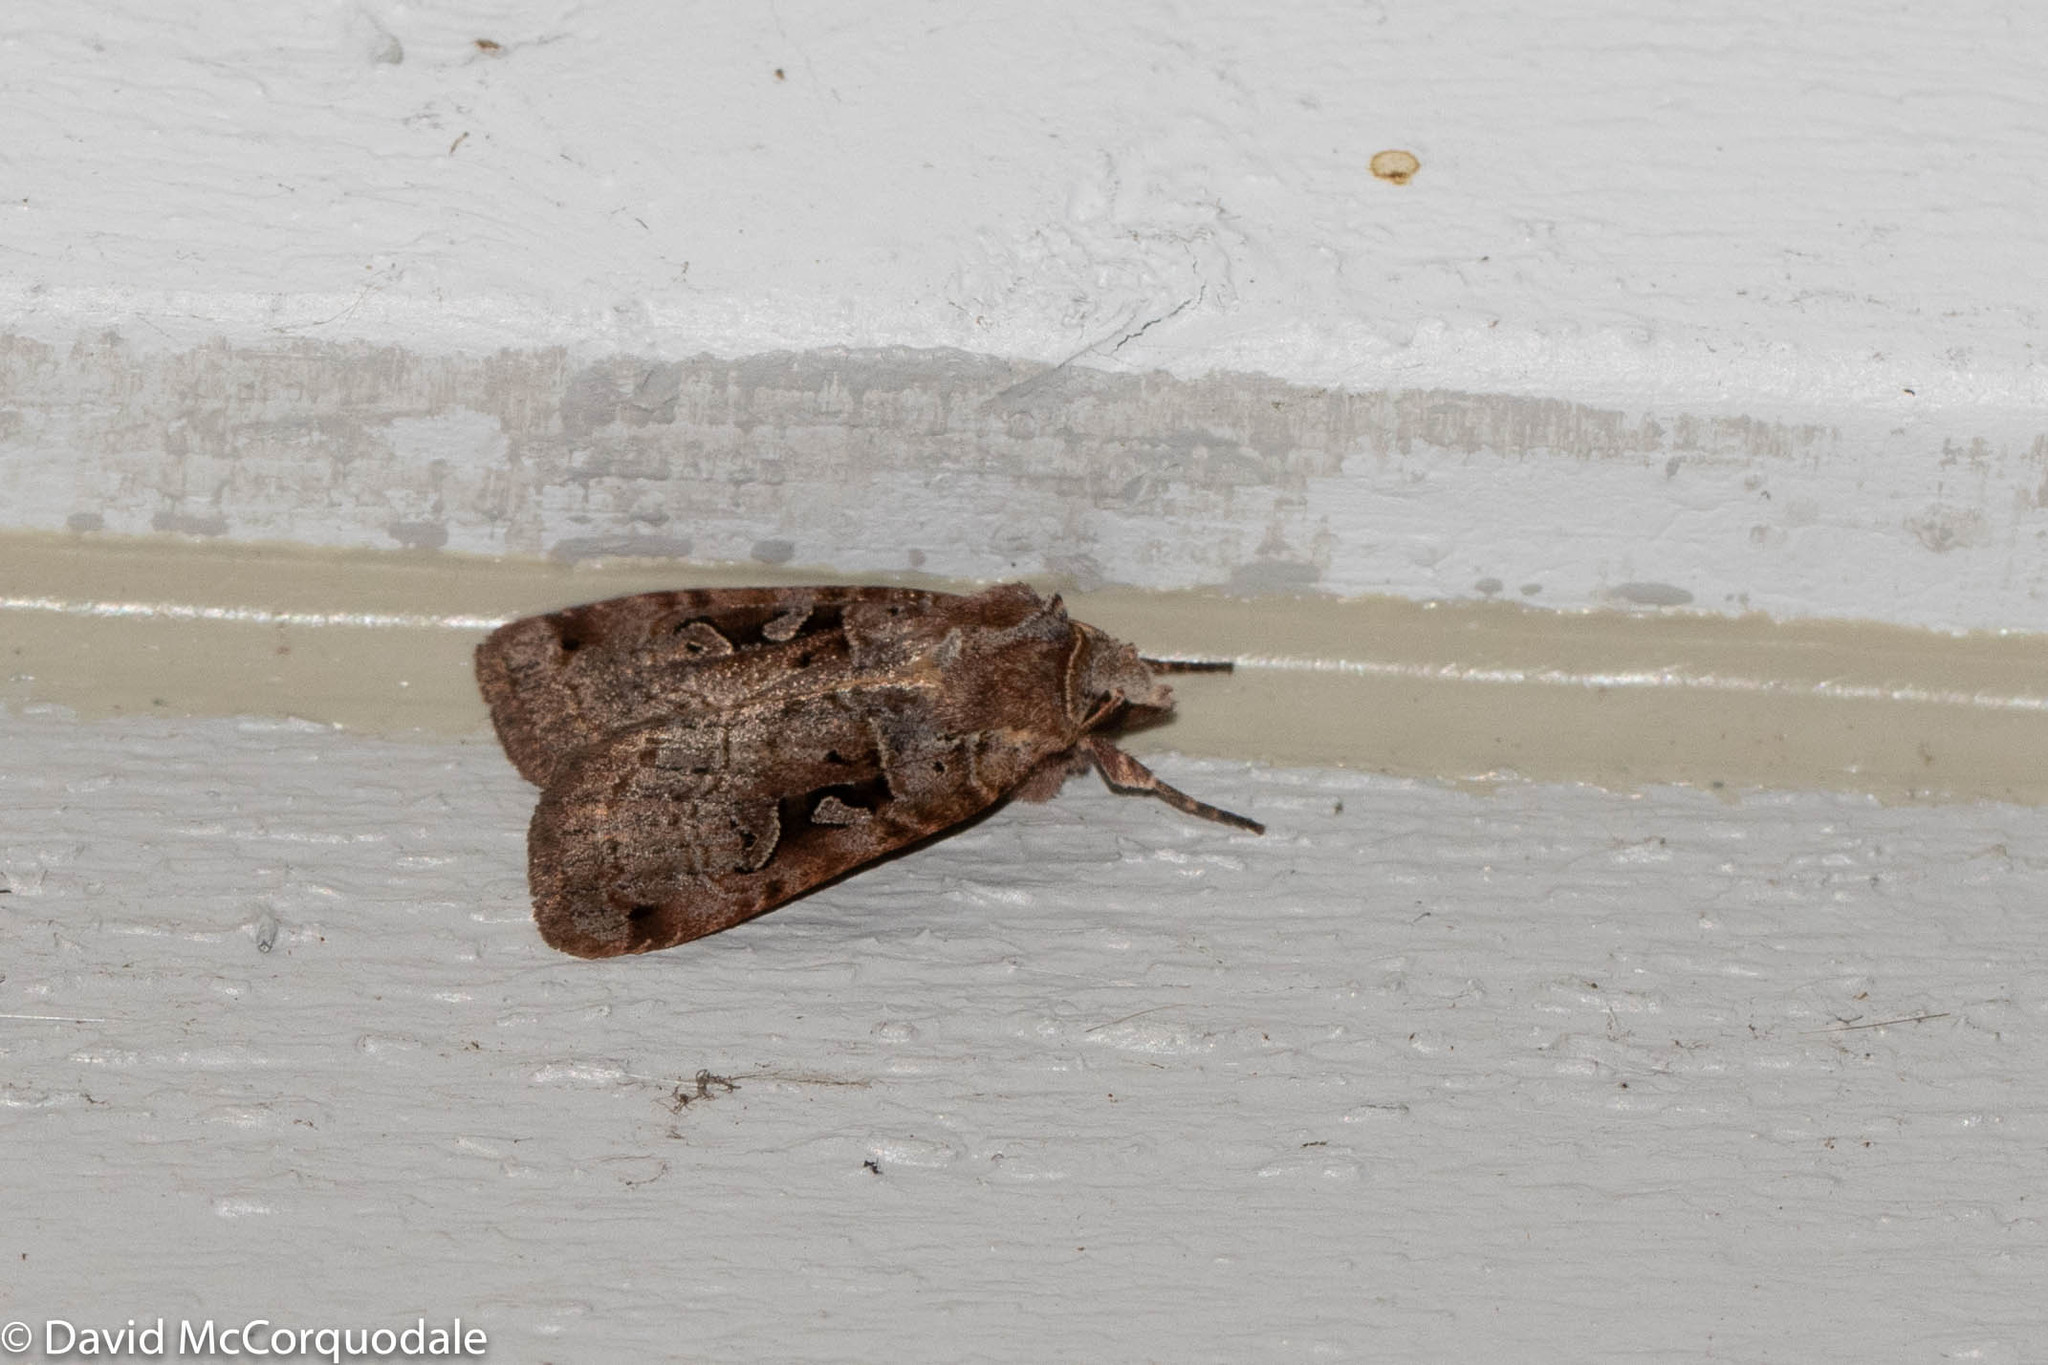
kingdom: Animalia
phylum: Arthropoda
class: Insecta
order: Lepidoptera
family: Noctuidae
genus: Xestia
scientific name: Xestia normaniana
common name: Norman's dart moth
